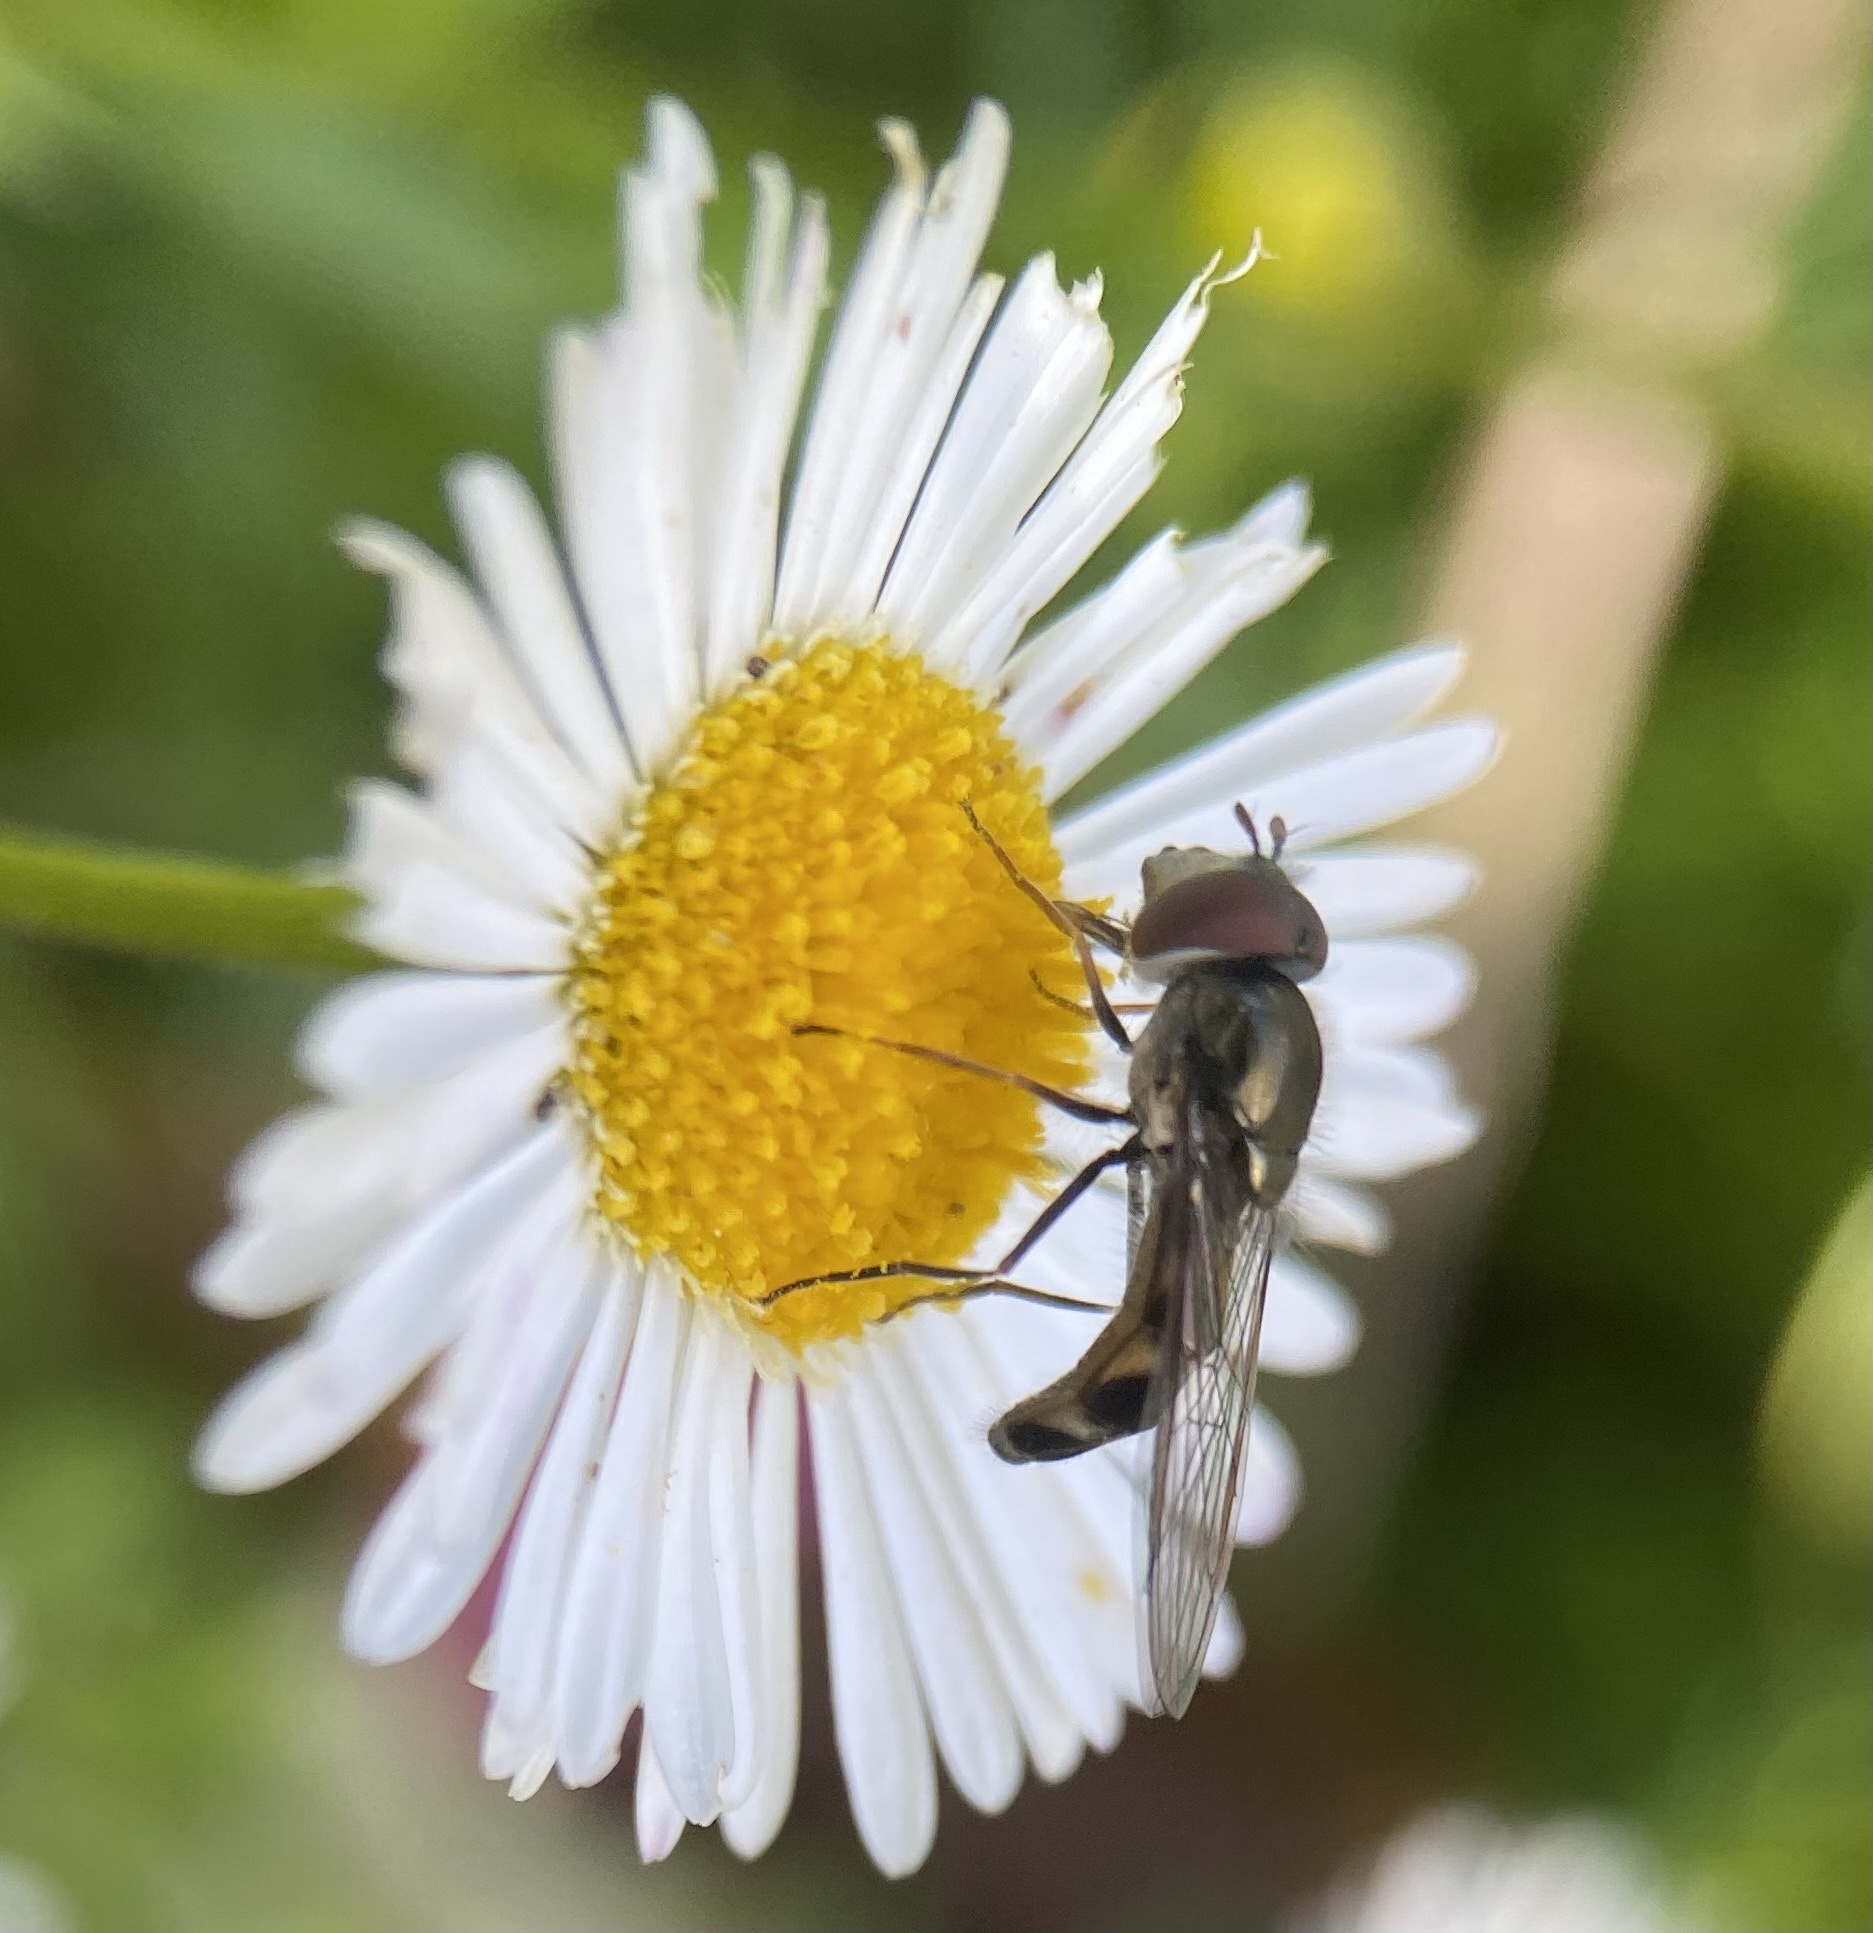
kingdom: Animalia
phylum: Arthropoda
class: Insecta
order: Diptera
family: Syrphidae
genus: Platycheirus
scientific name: Platycheirus trichopus
